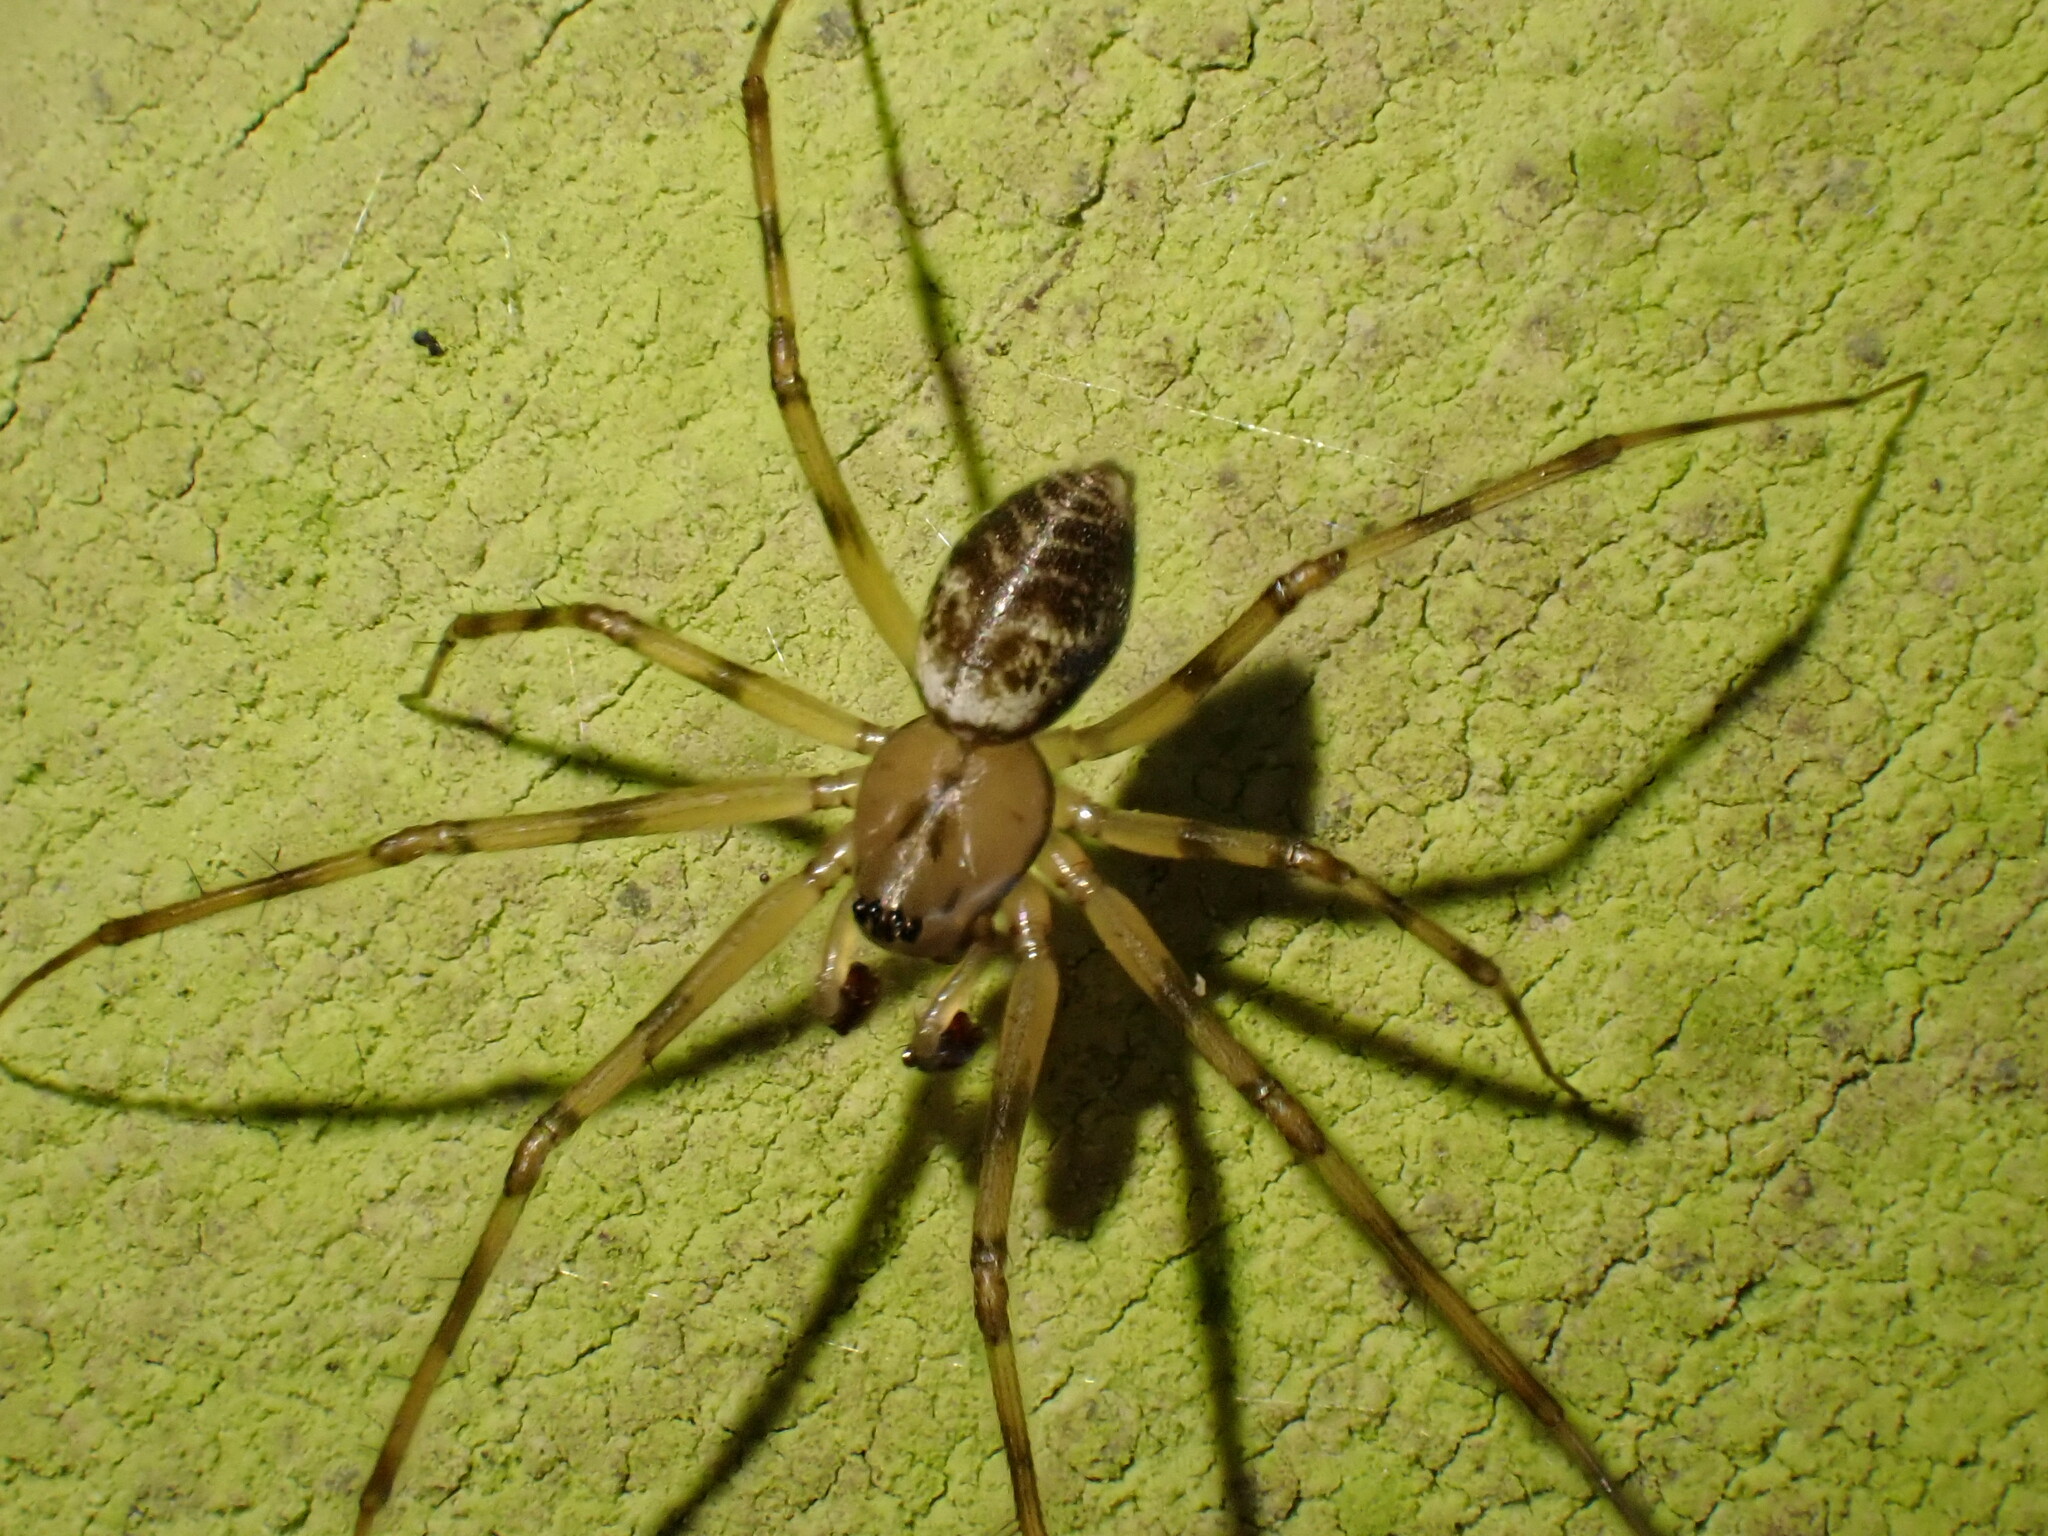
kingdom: Animalia
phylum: Arthropoda
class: Arachnida
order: Araneae
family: Linyphiidae
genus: Drapetisca
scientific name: Drapetisca socialis
